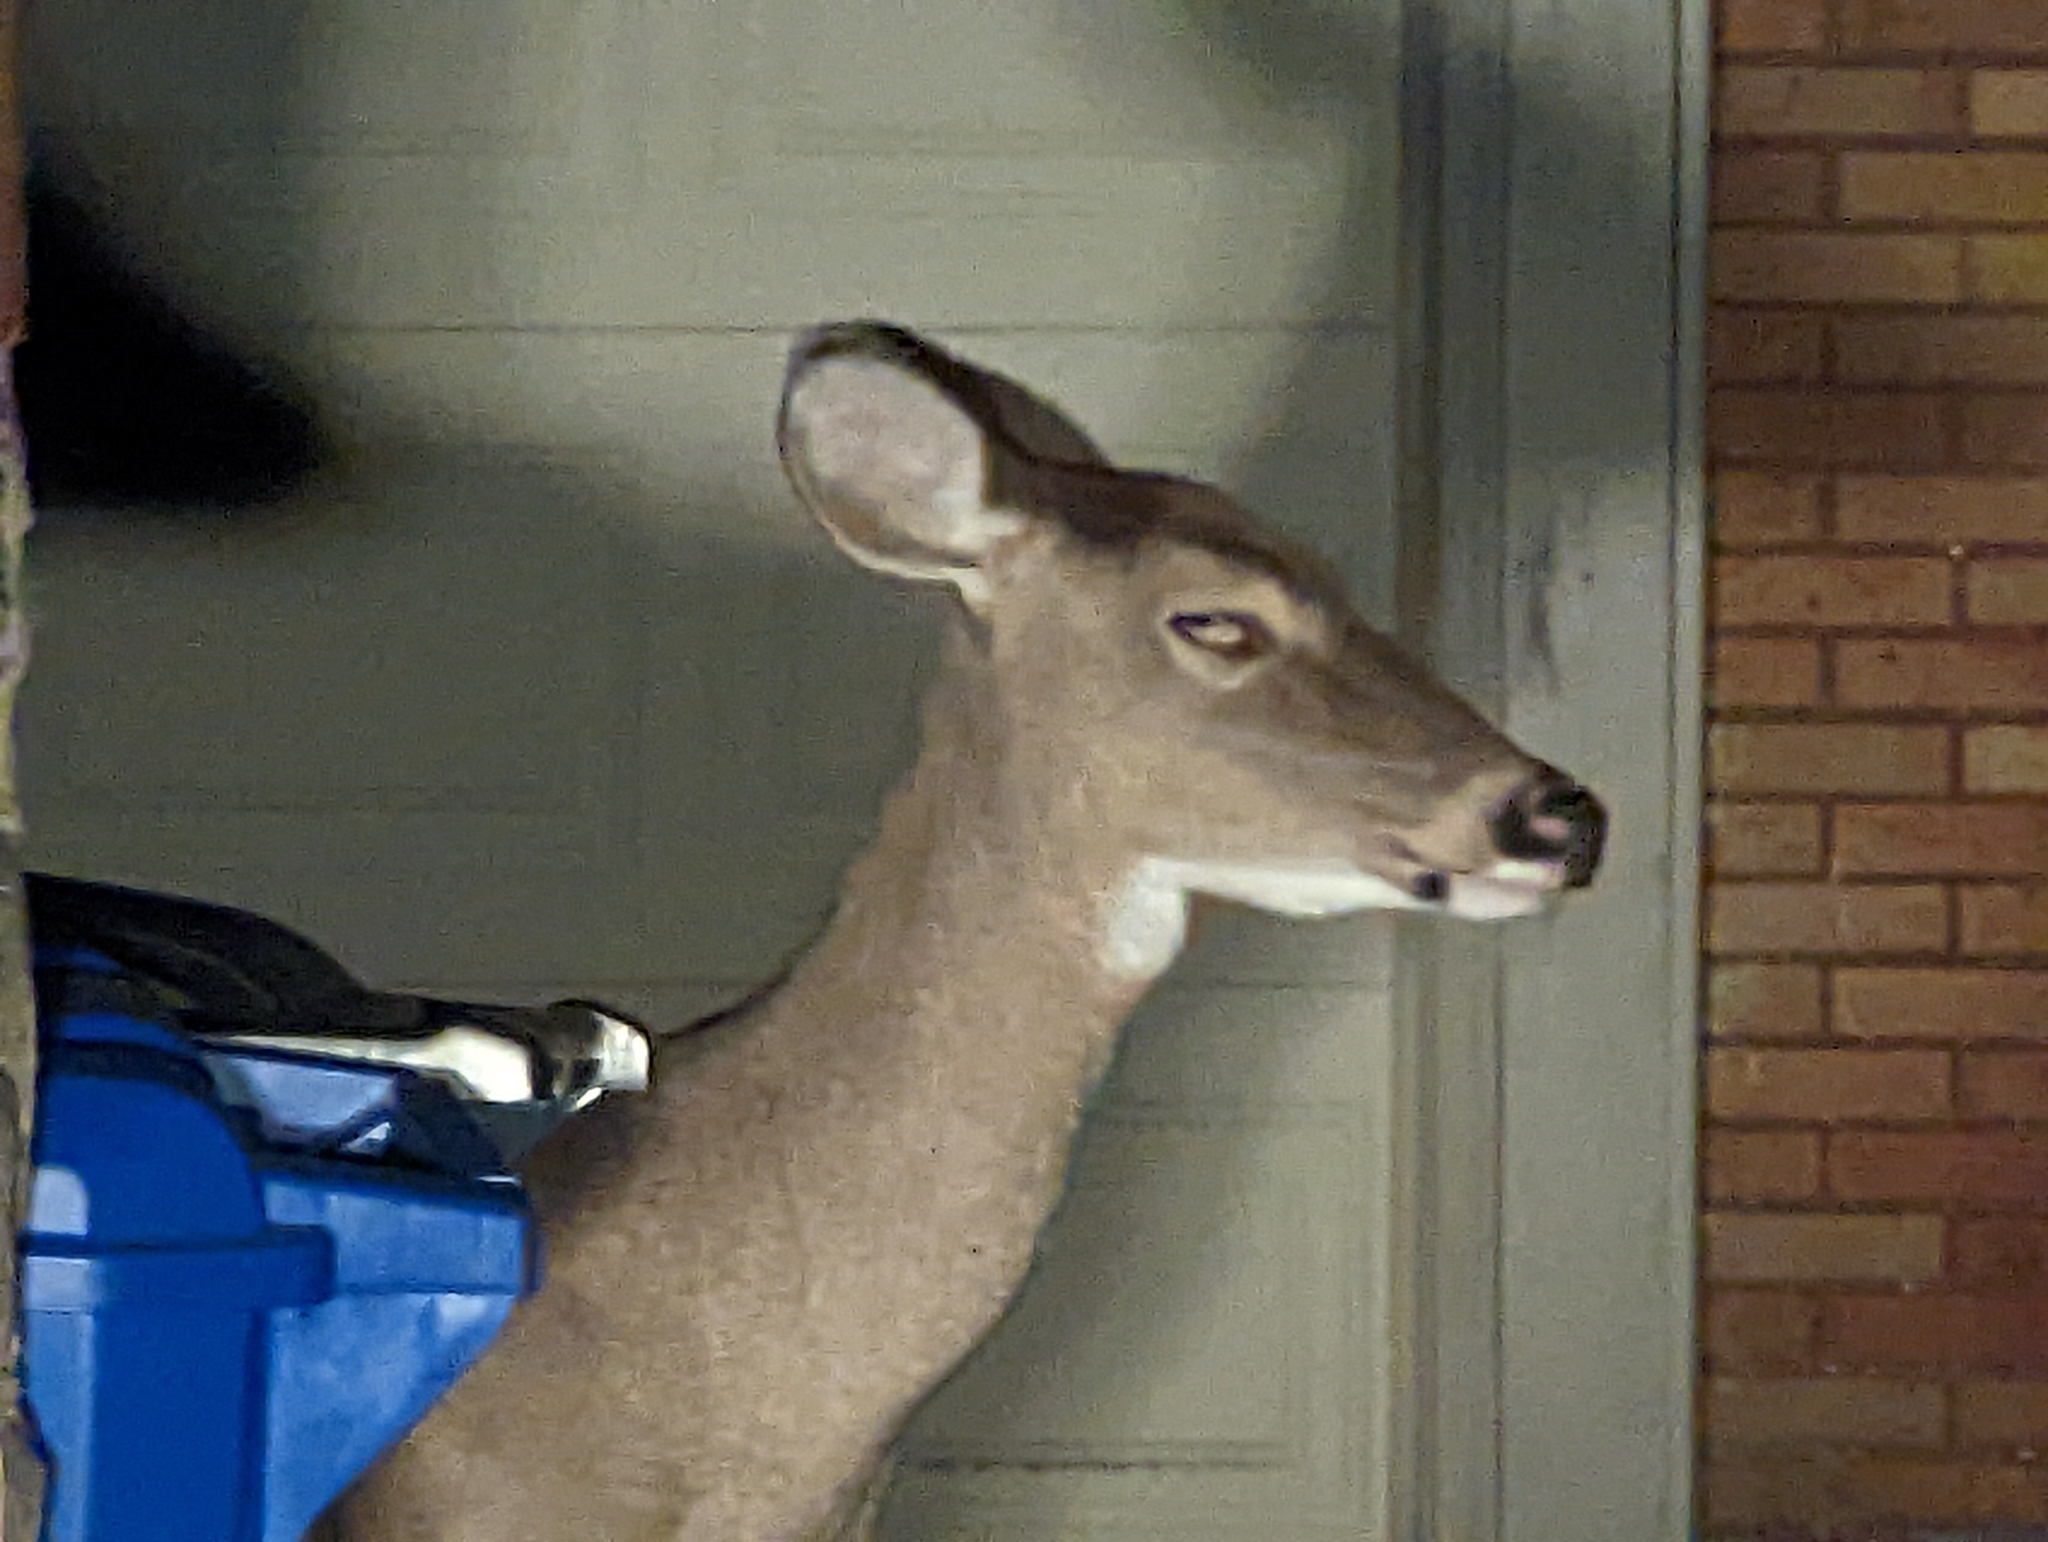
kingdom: Animalia
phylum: Chordata
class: Mammalia
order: Artiodactyla
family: Cervidae
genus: Odocoileus
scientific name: Odocoileus virginianus
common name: White-tailed deer
